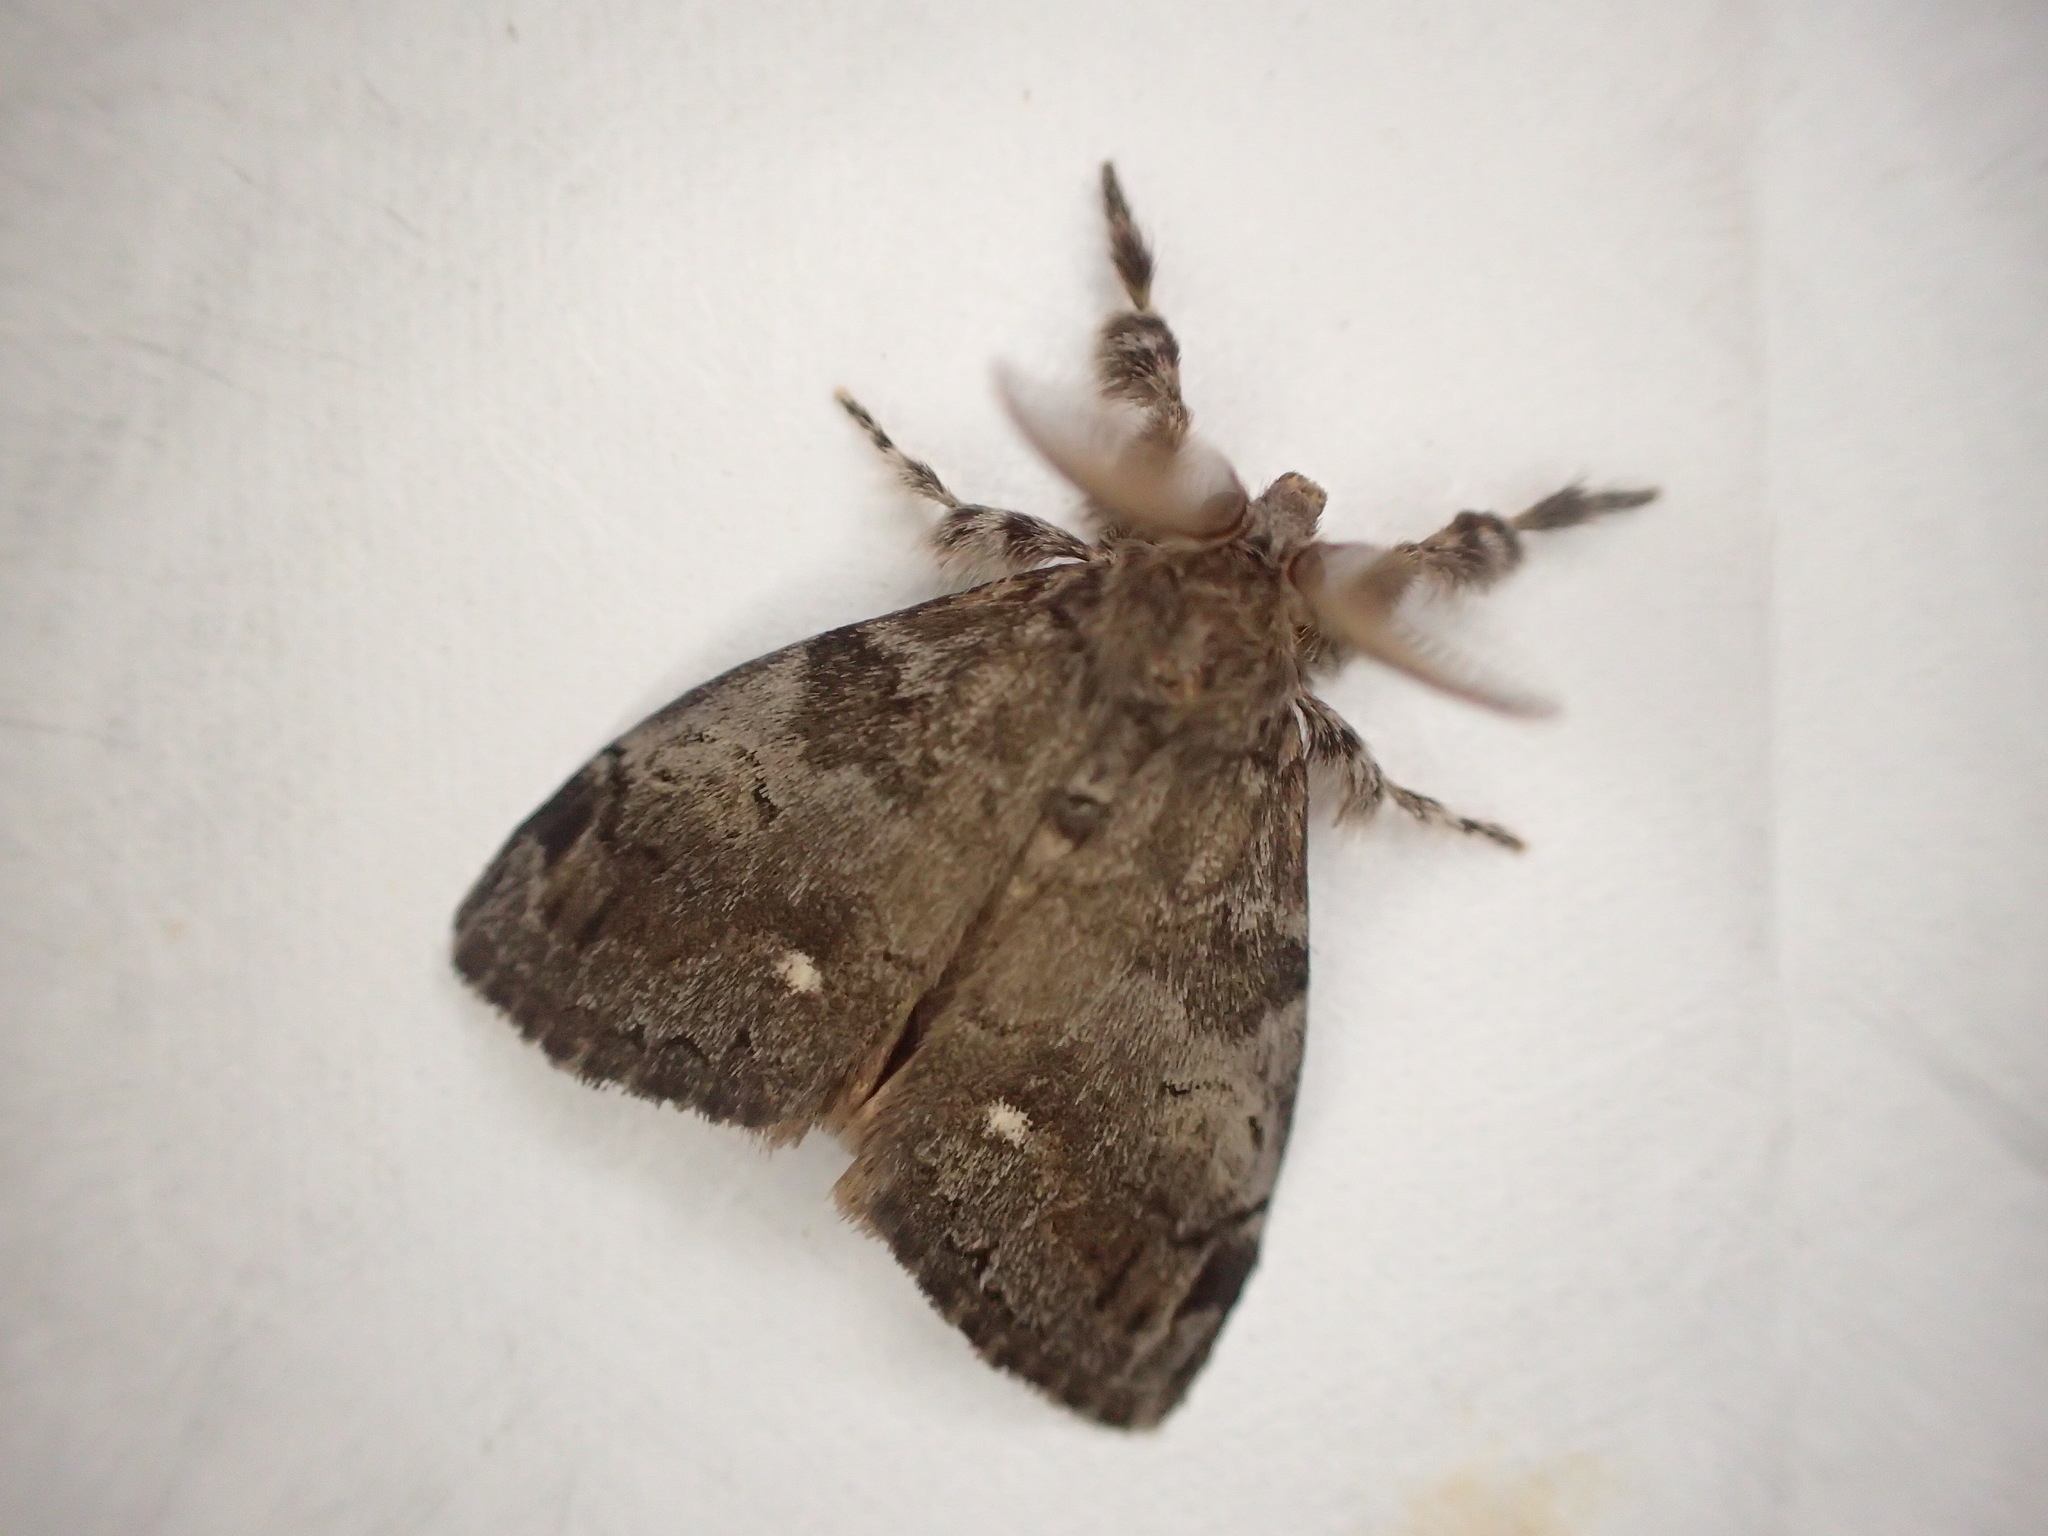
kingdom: Animalia
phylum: Arthropoda
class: Insecta
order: Lepidoptera
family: Erebidae
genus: Orgyia
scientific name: Orgyia leucostigma
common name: White-marked tussock moth
